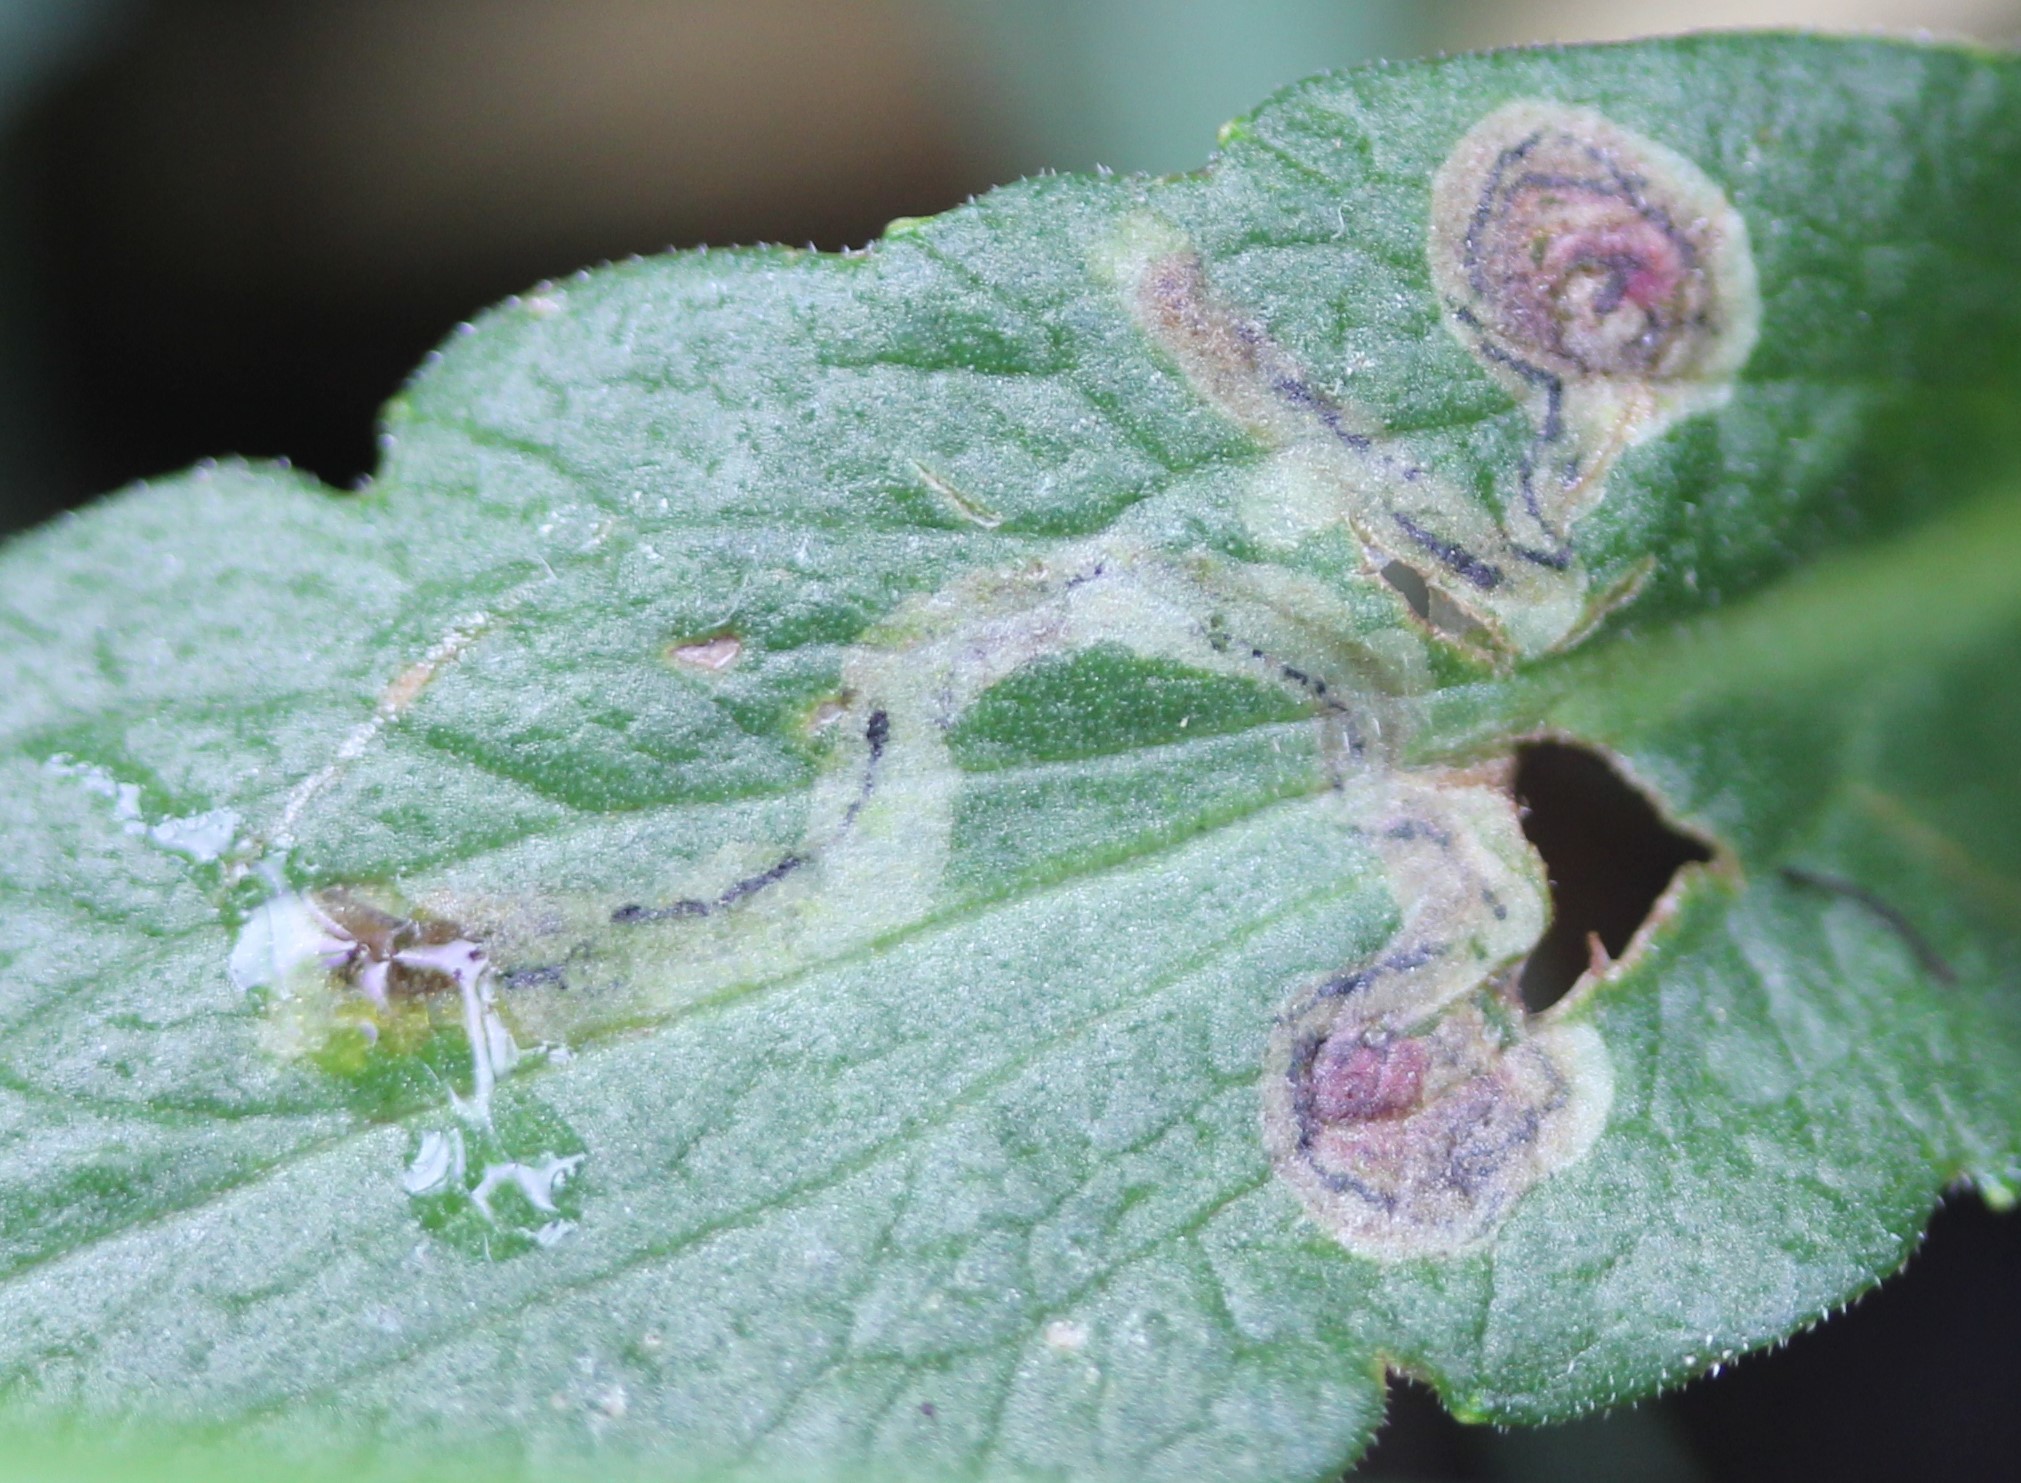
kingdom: Animalia
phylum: Arthropoda
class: Insecta
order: Diptera
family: Agromyzidae
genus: Liriomyza
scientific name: Liriomyza eupatorii
